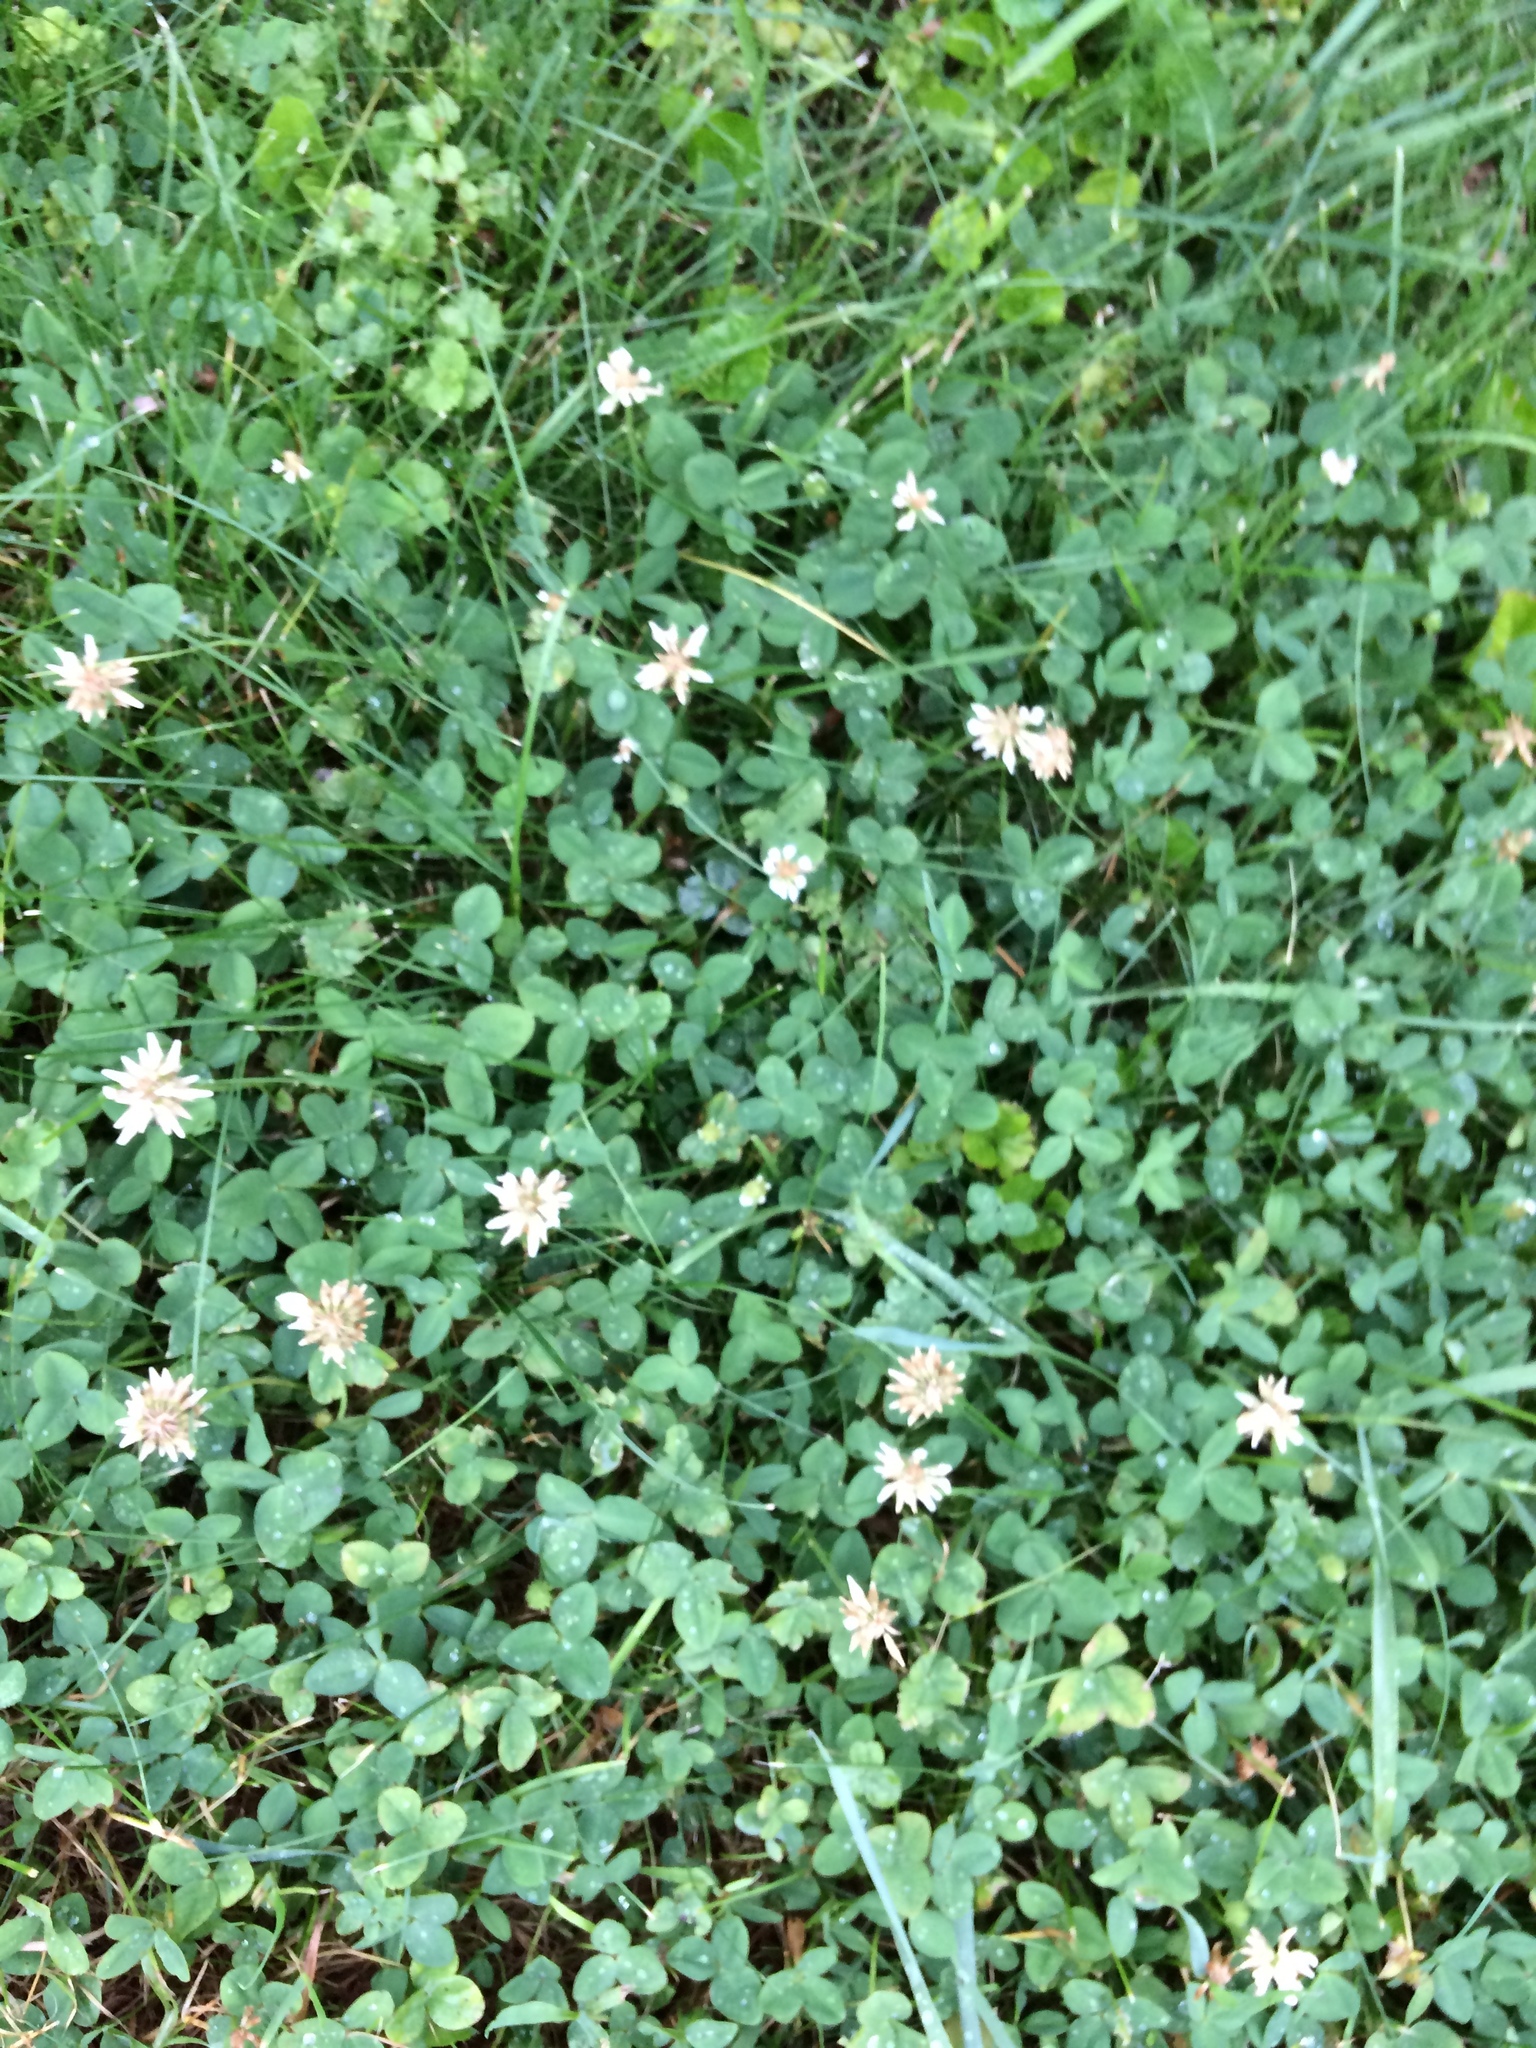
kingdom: Plantae
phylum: Tracheophyta
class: Magnoliopsida
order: Fabales
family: Fabaceae
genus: Trifolium
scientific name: Trifolium repens
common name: White clover
